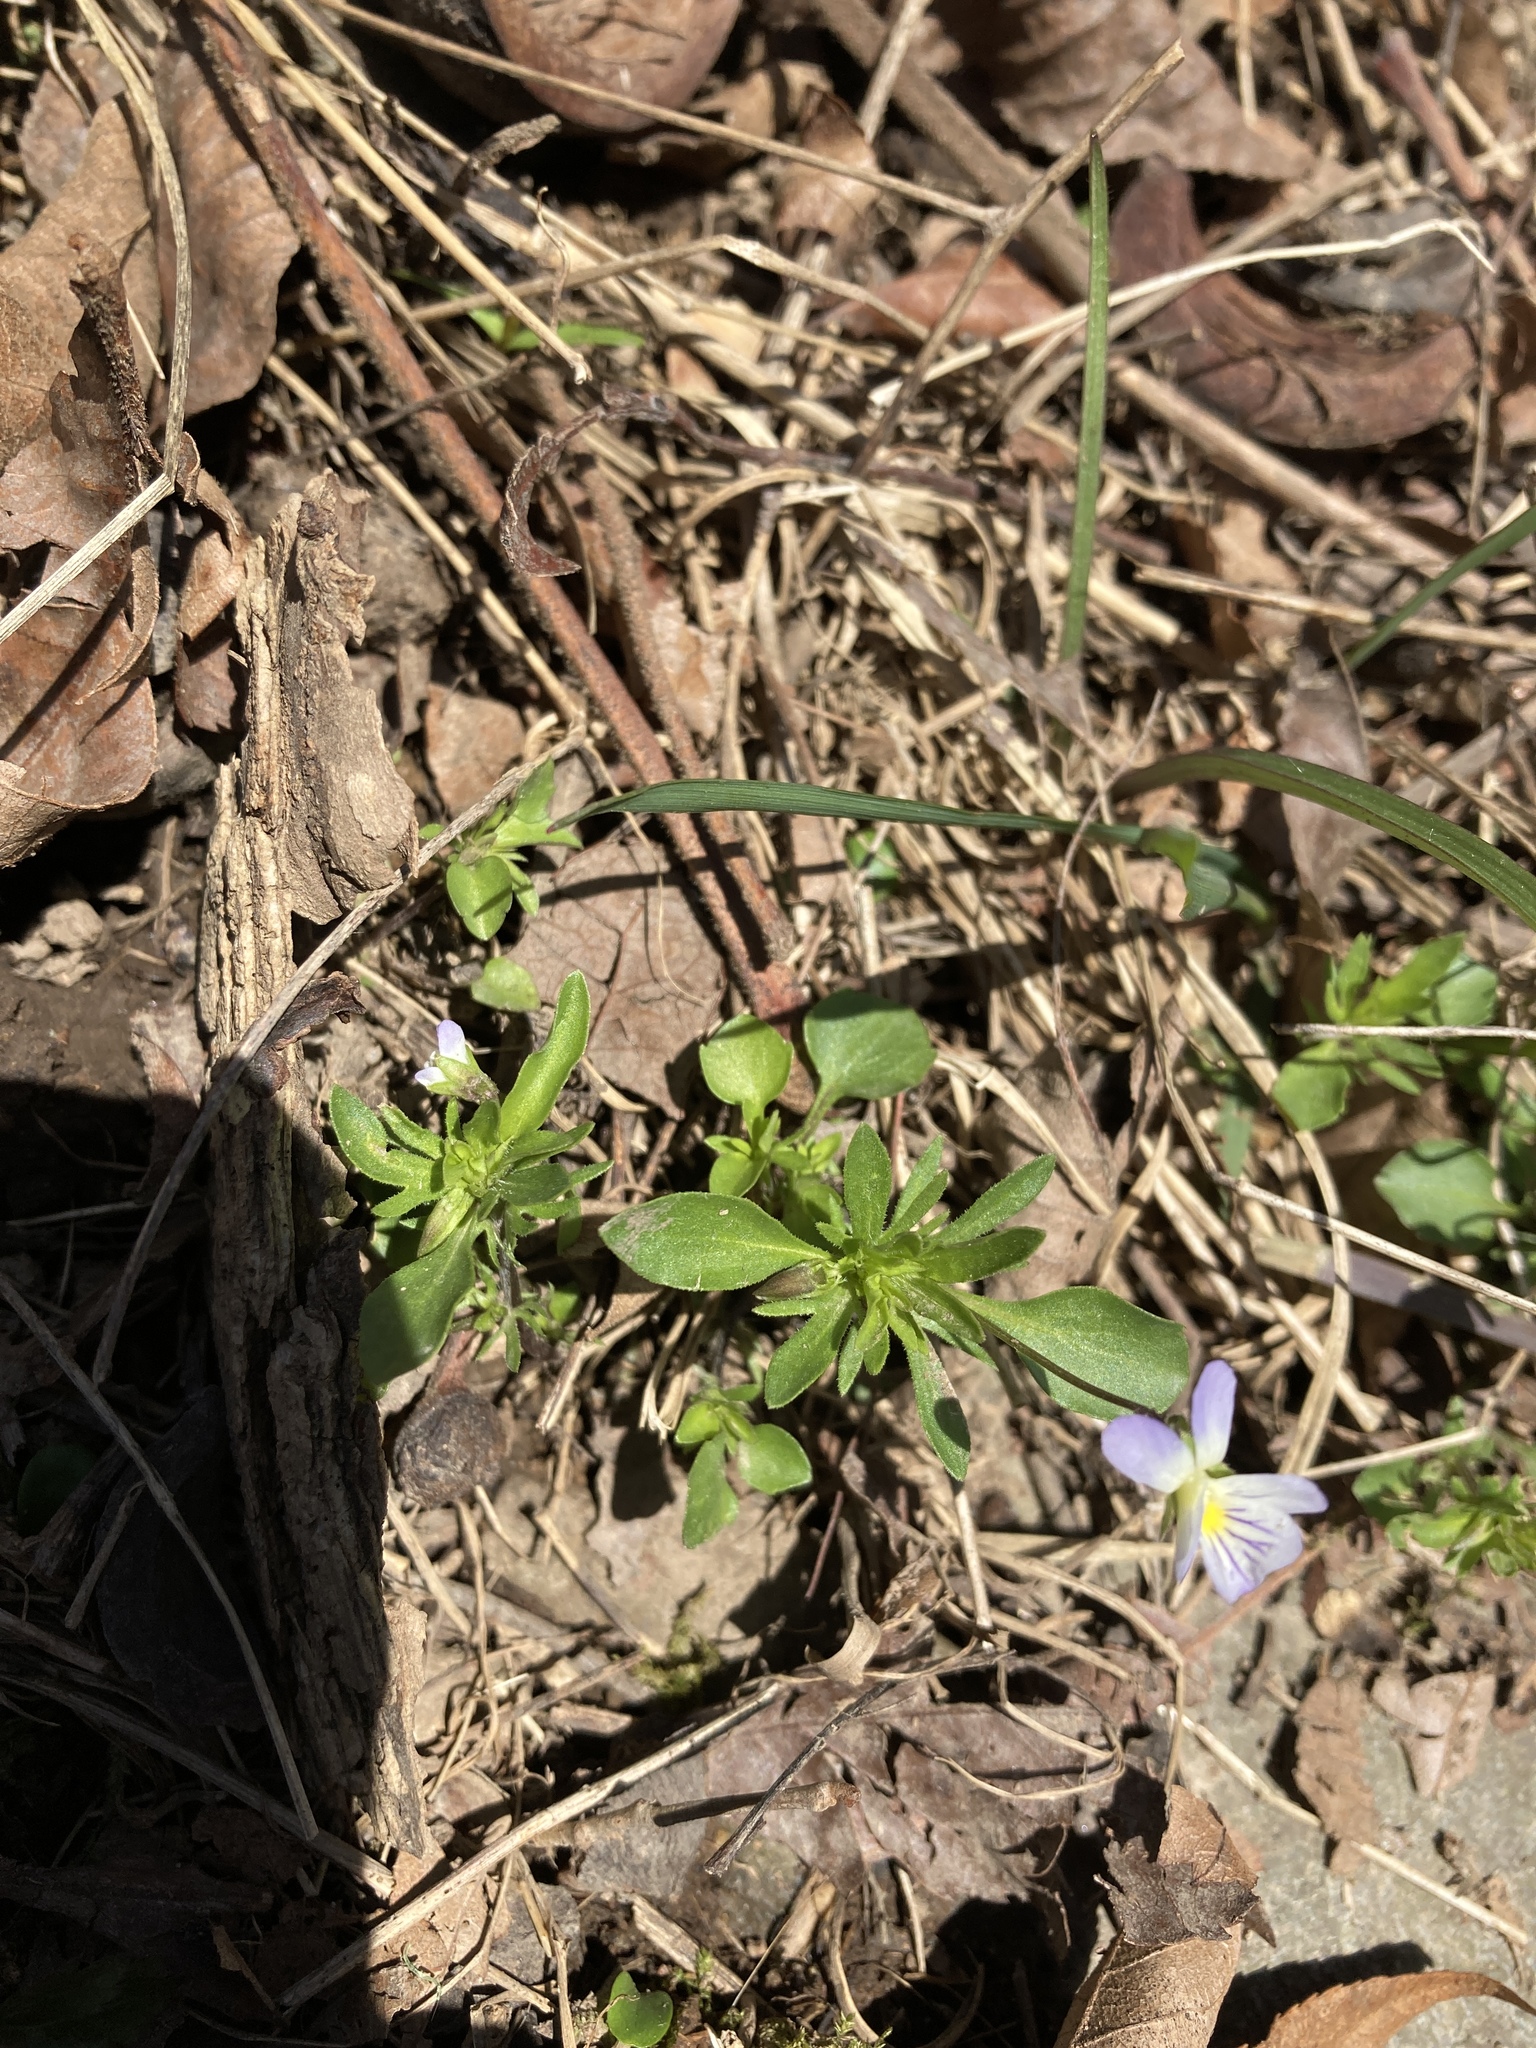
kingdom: Plantae
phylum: Tracheophyta
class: Magnoliopsida
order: Malpighiales
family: Violaceae
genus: Viola
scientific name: Viola rafinesquei
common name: American field pansy
